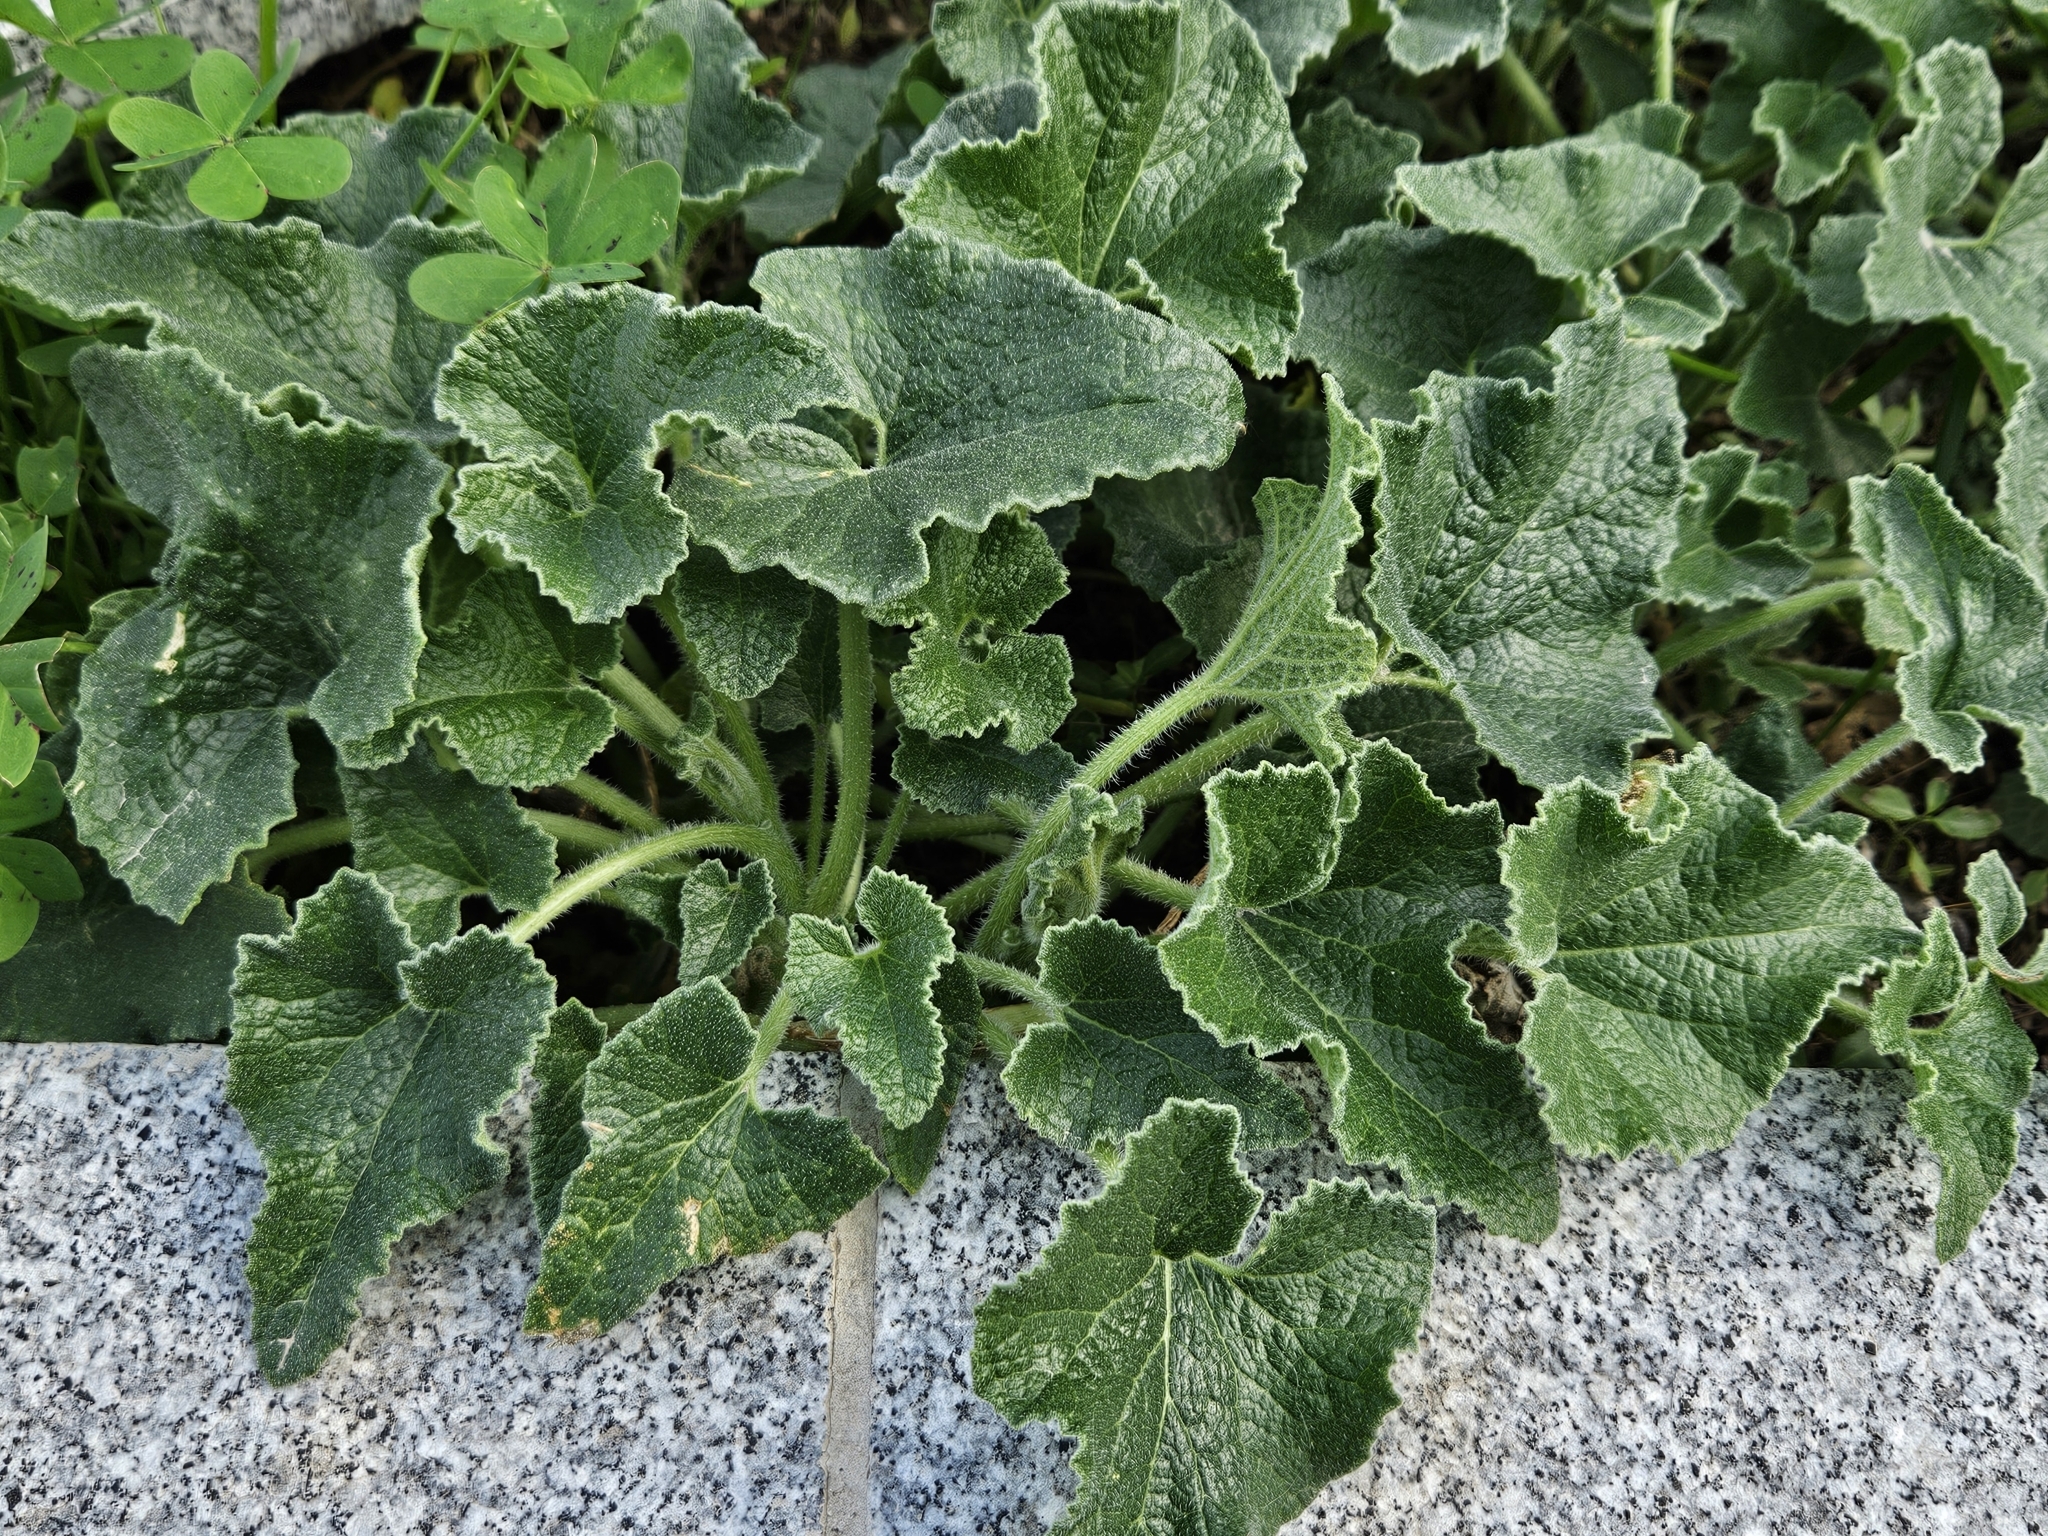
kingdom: Plantae
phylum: Tracheophyta
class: Magnoliopsida
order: Cucurbitales
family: Cucurbitaceae
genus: Ecballium
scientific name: Ecballium elaterium
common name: Squirting cucumber
